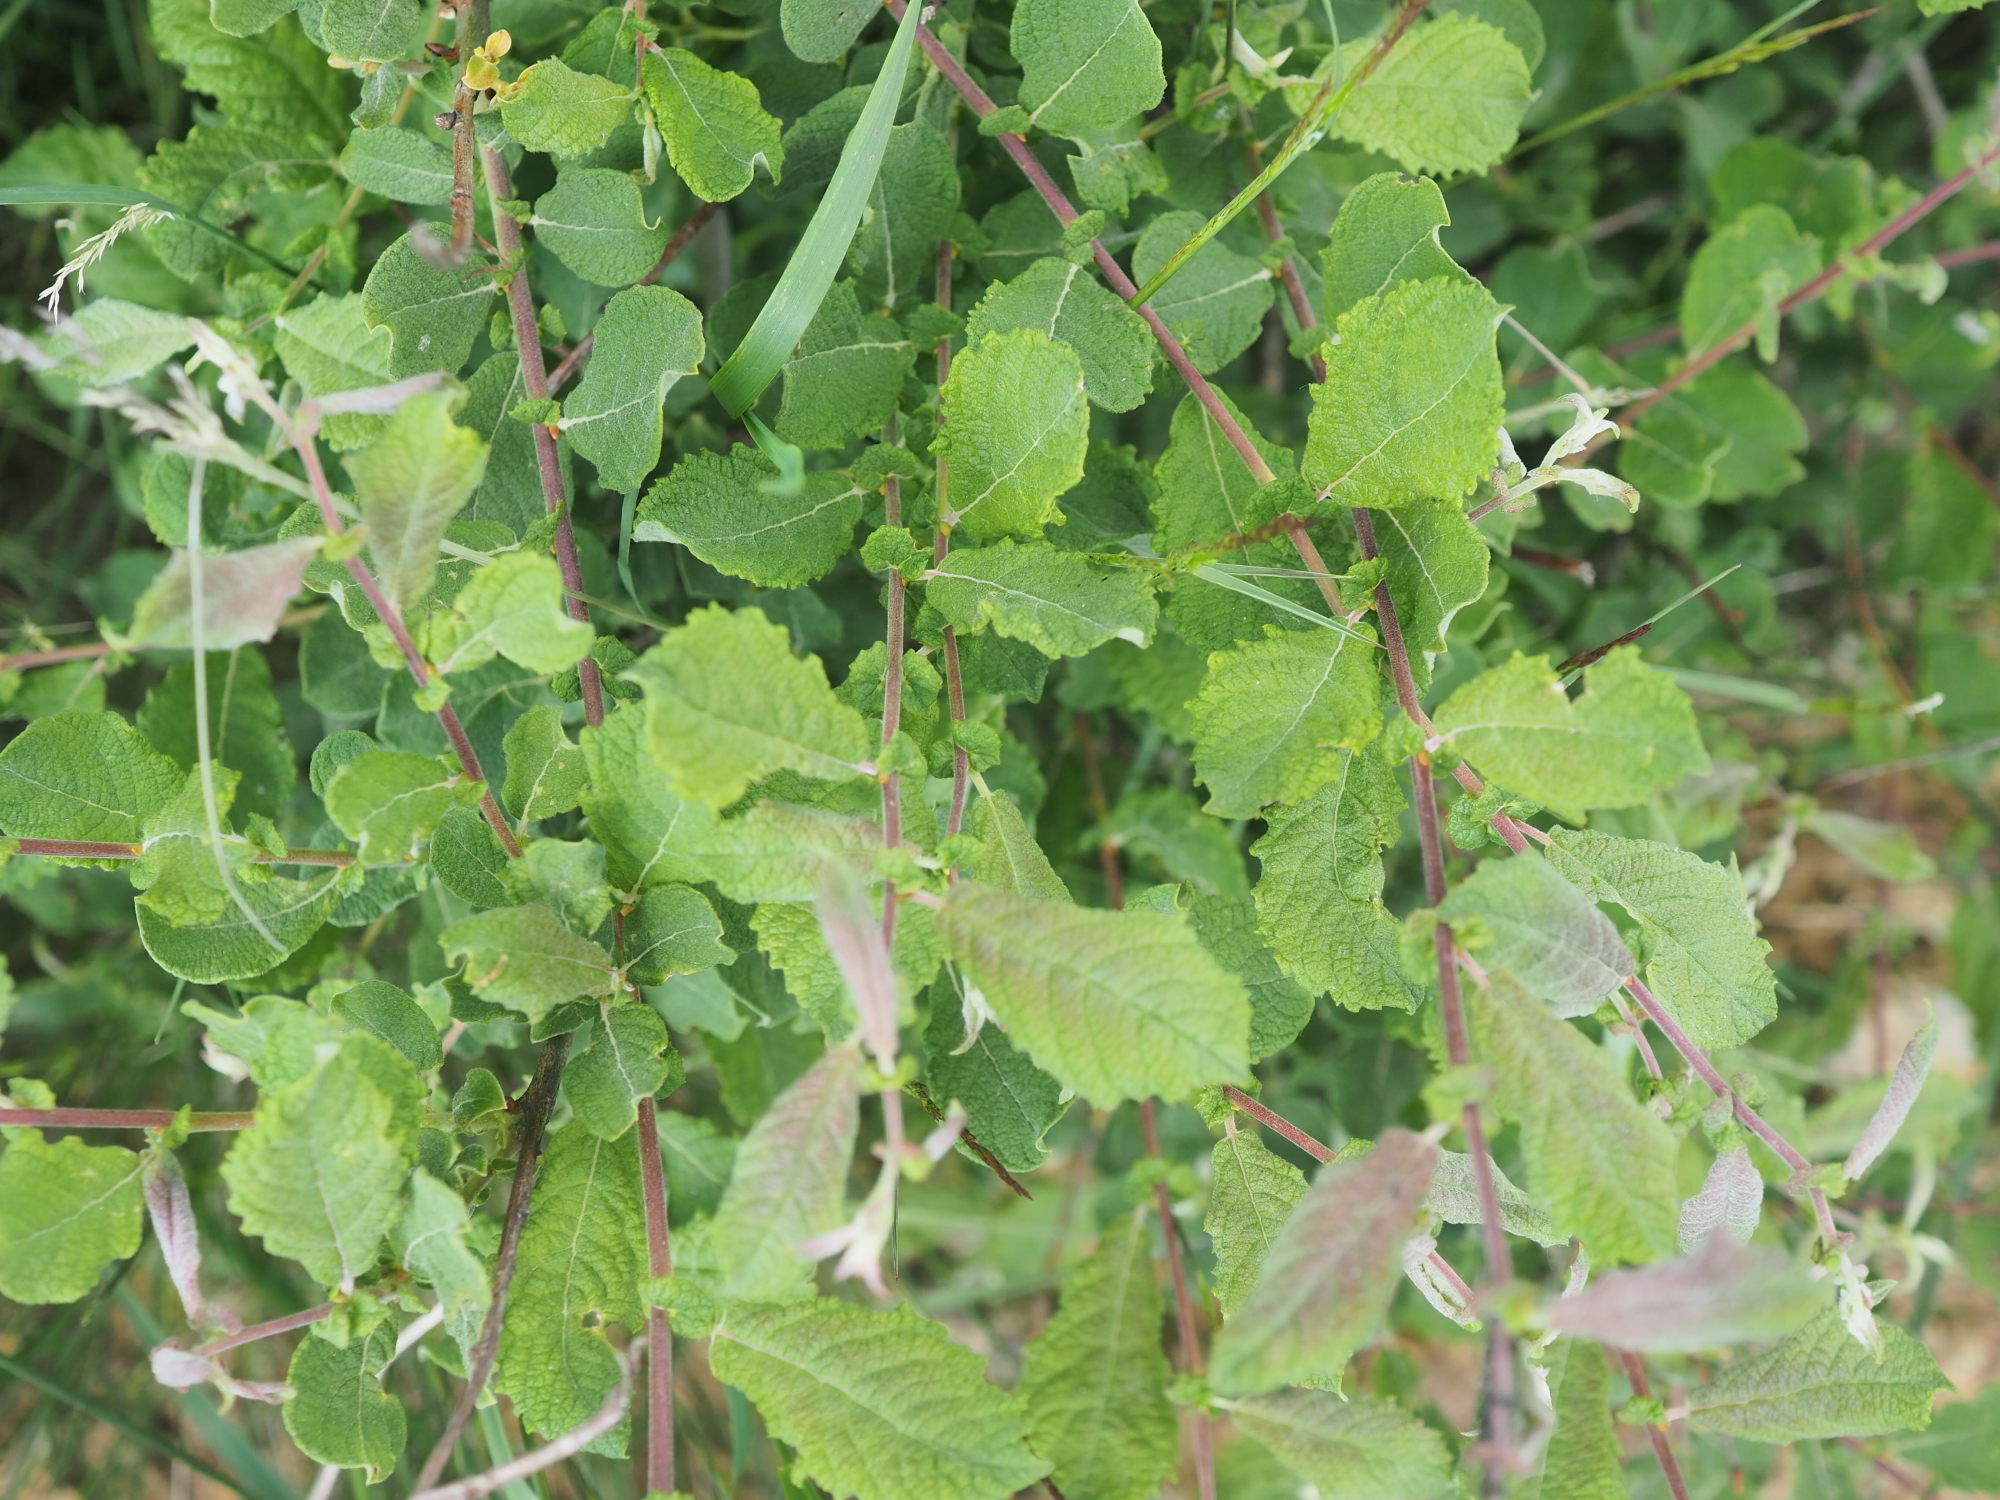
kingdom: Plantae
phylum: Tracheophyta
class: Magnoliopsida
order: Malpighiales
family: Salicaceae
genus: Salix
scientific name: Salix aurita
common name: Eared willow
